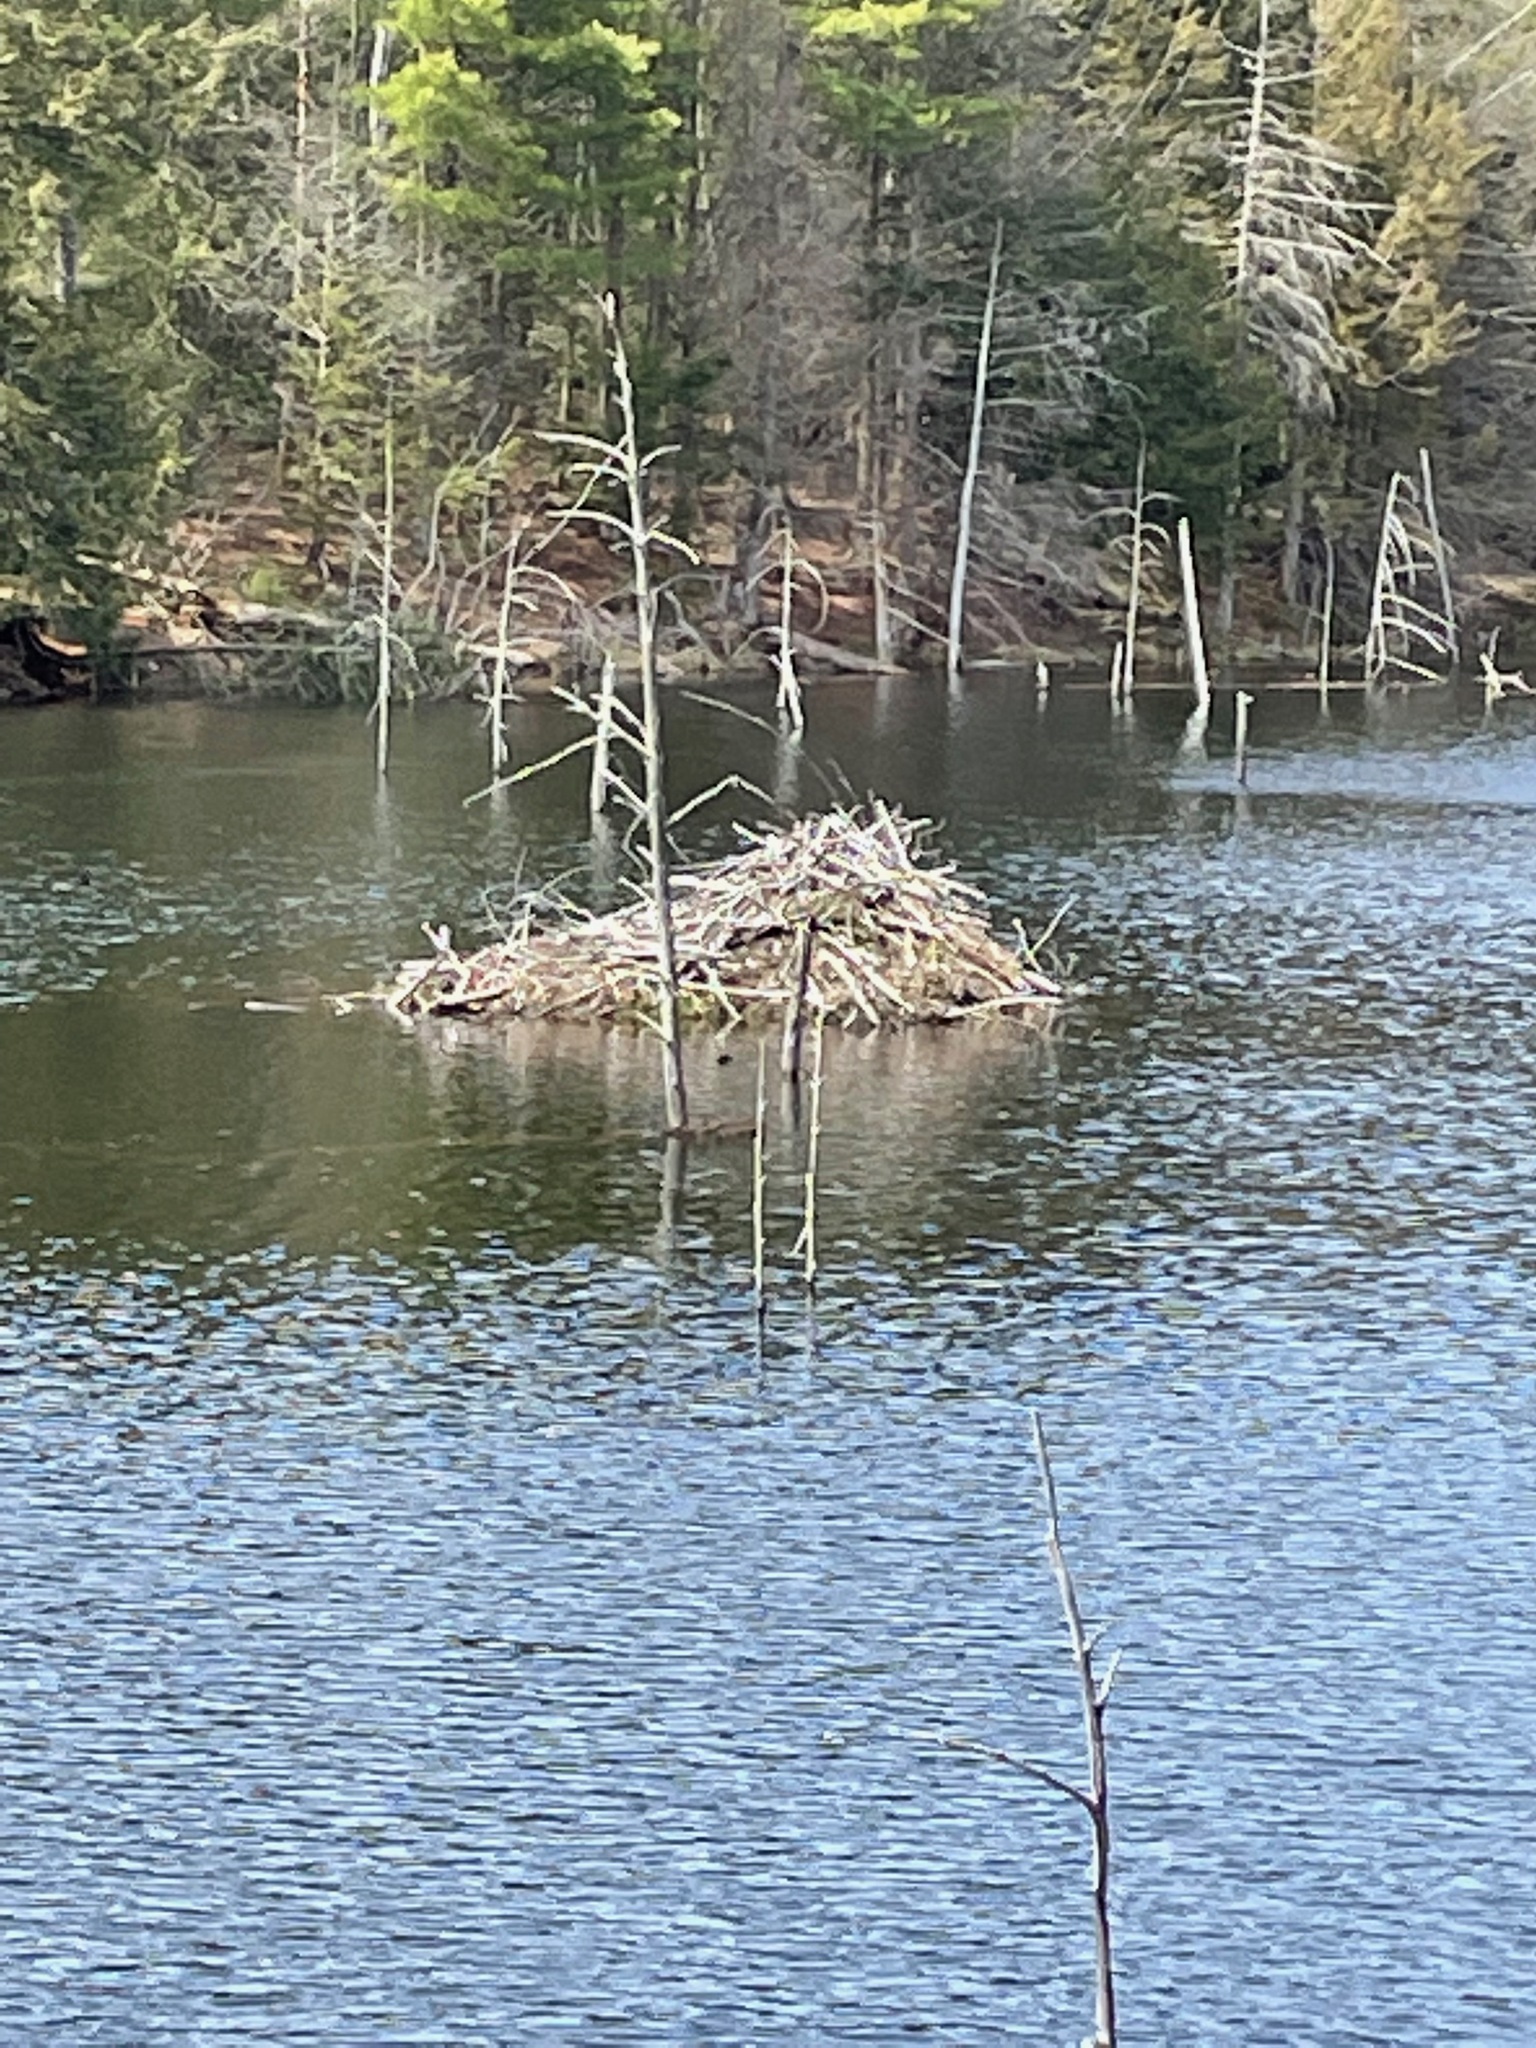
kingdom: Animalia
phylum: Chordata
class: Mammalia
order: Rodentia
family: Castoridae
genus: Castor
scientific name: Castor canadensis
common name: American beaver
